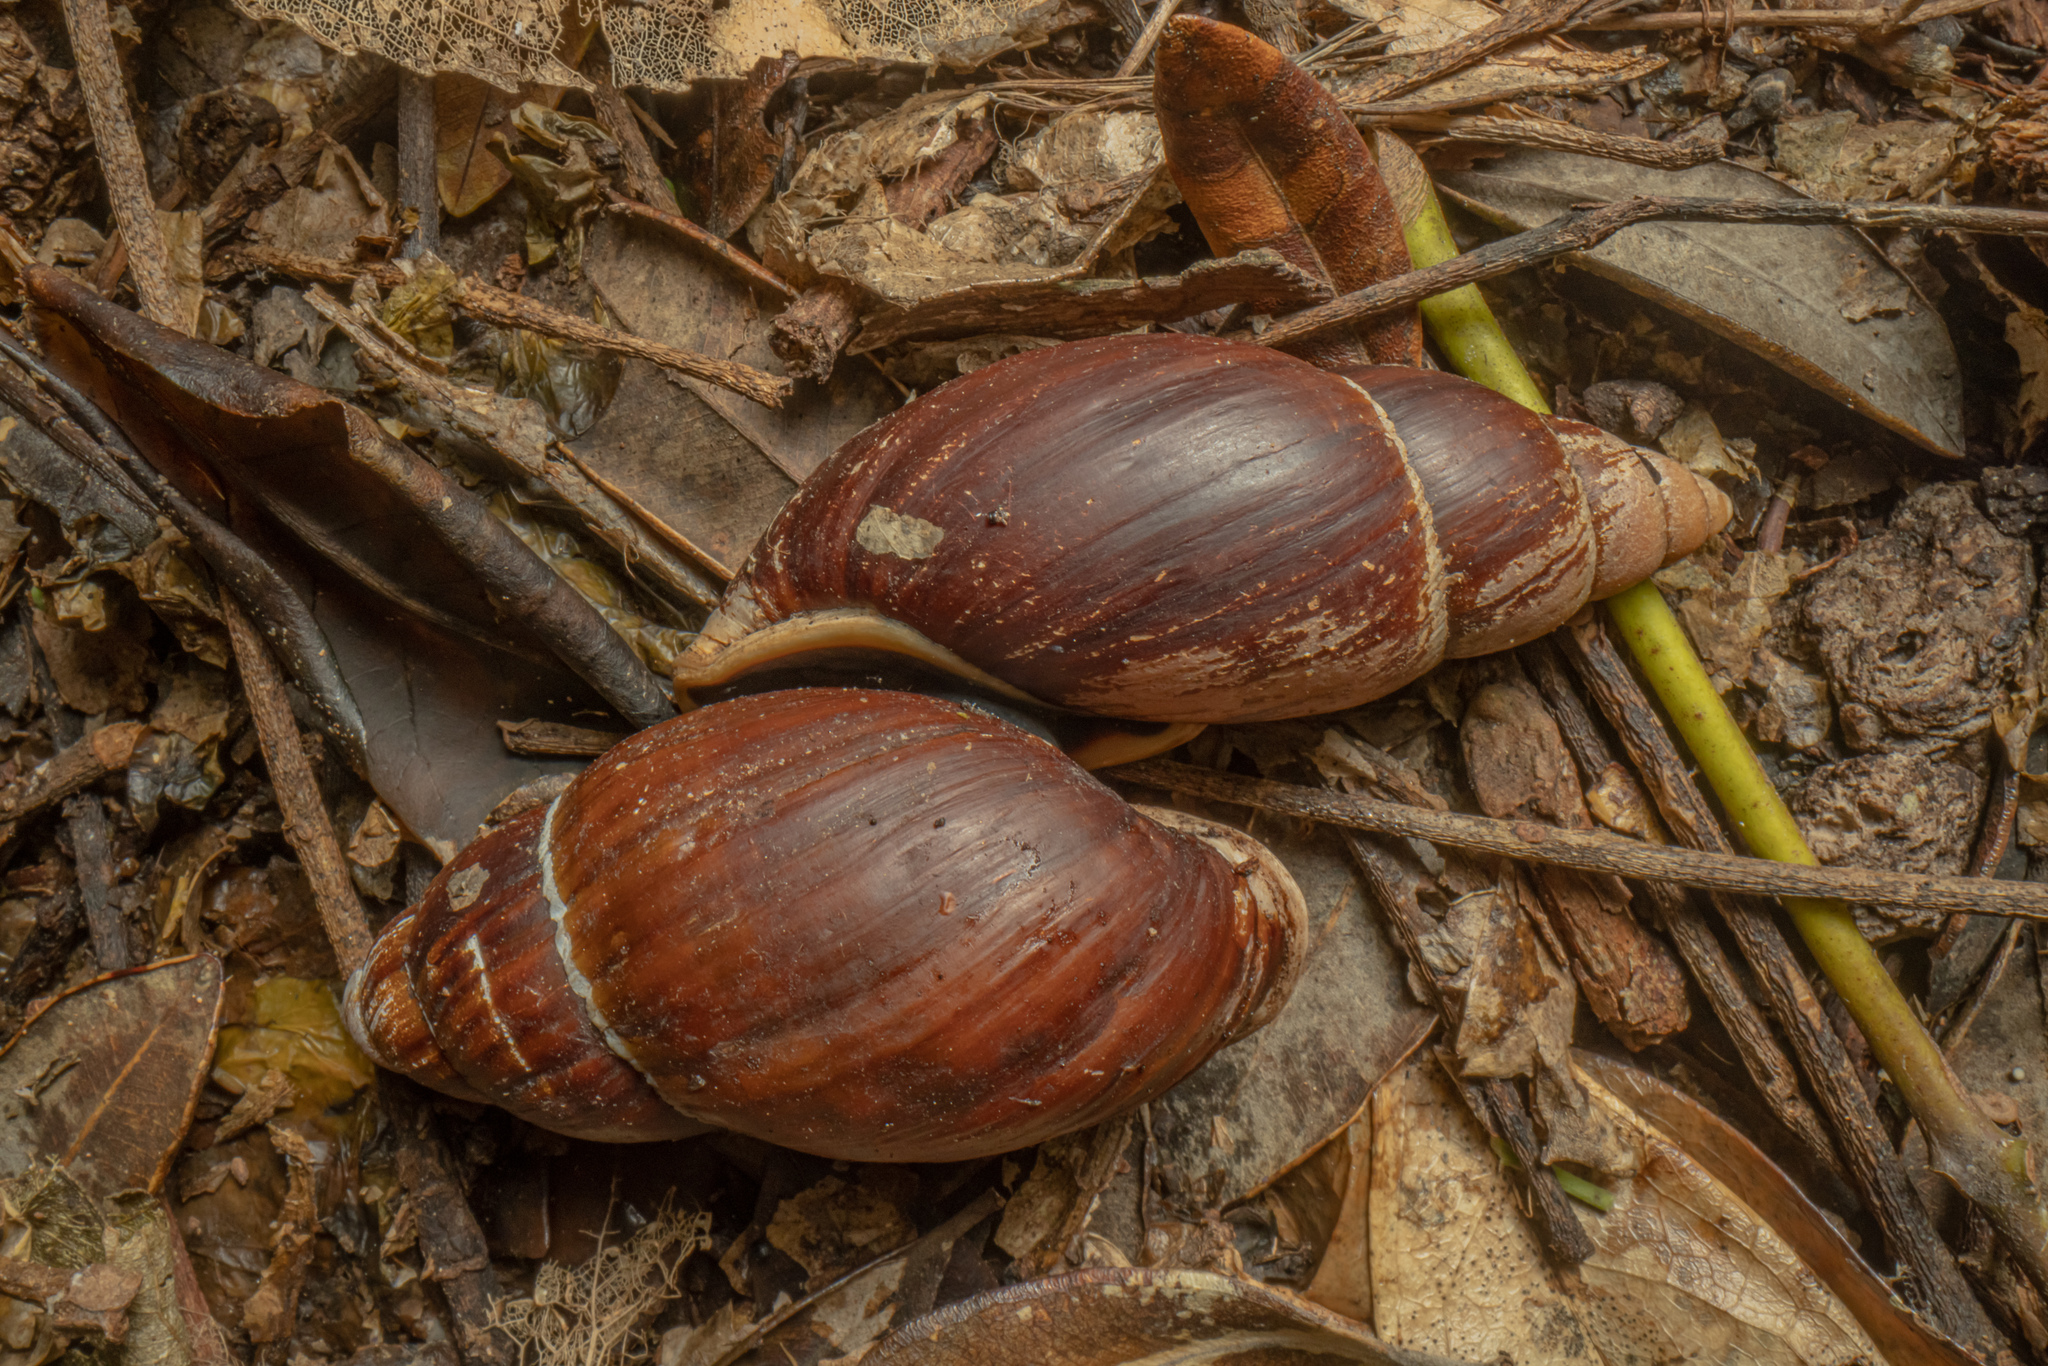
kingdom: Animalia
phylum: Mollusca
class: Gastropoda
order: Stylommatophora
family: Bothriembryontidae
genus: Maoristylus
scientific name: Maoristylus hongii
